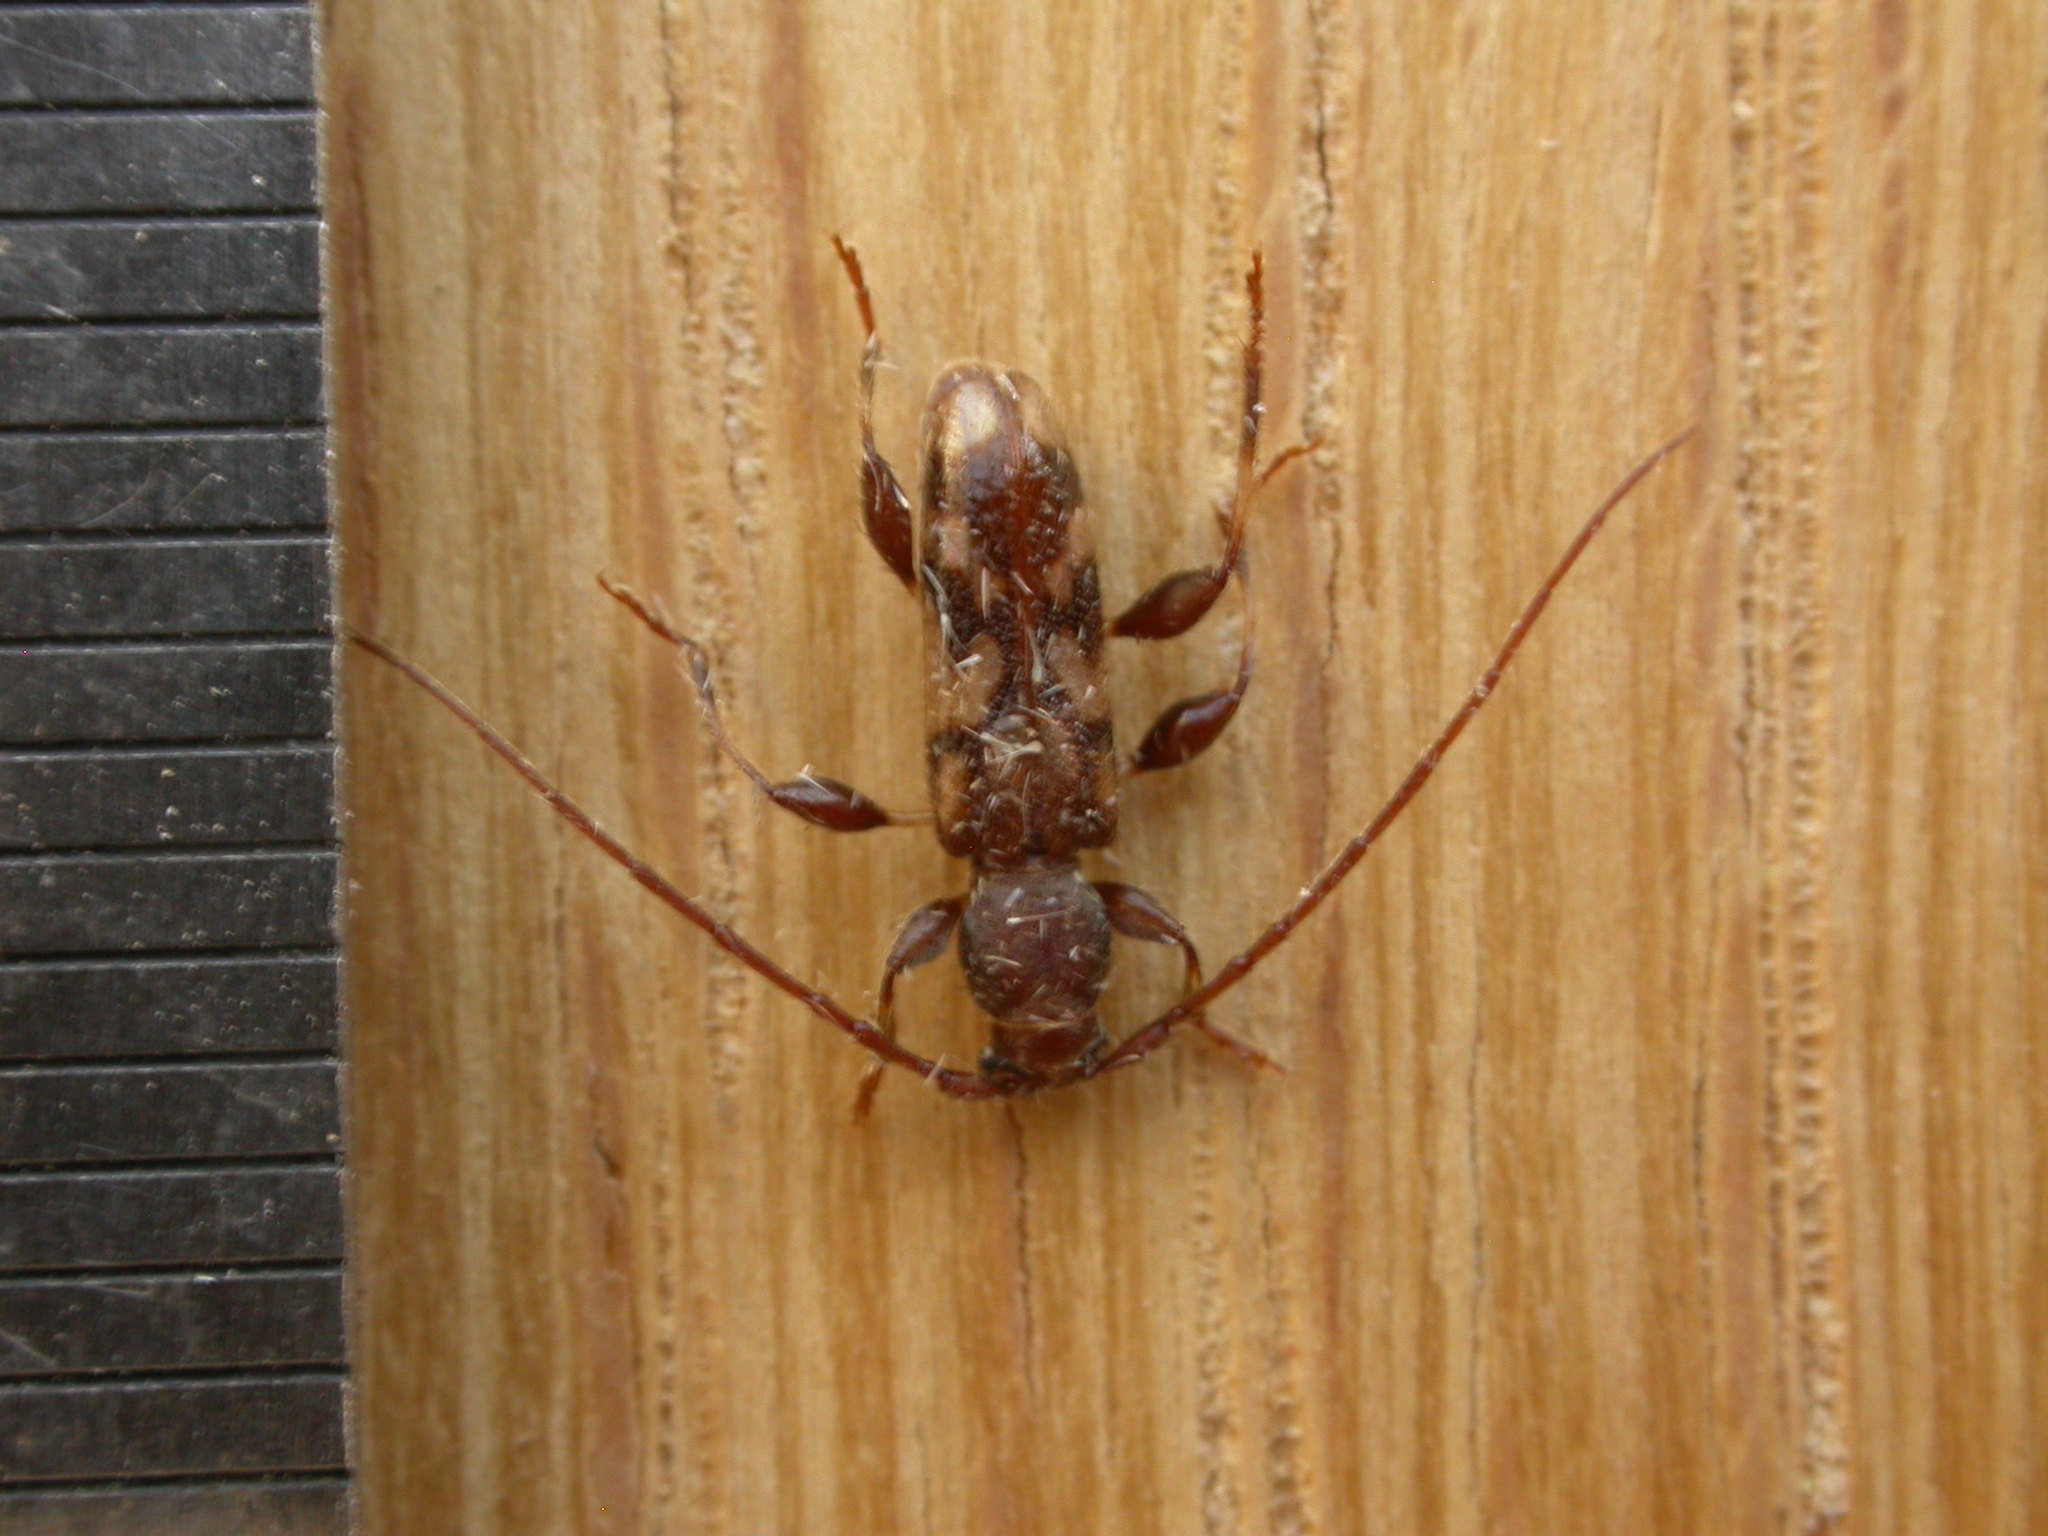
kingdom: Animalia
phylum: Arthropoda
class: Insecta
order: Coleoptera
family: Cerambycidae
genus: Bethelium
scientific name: Bethelium signiferum
